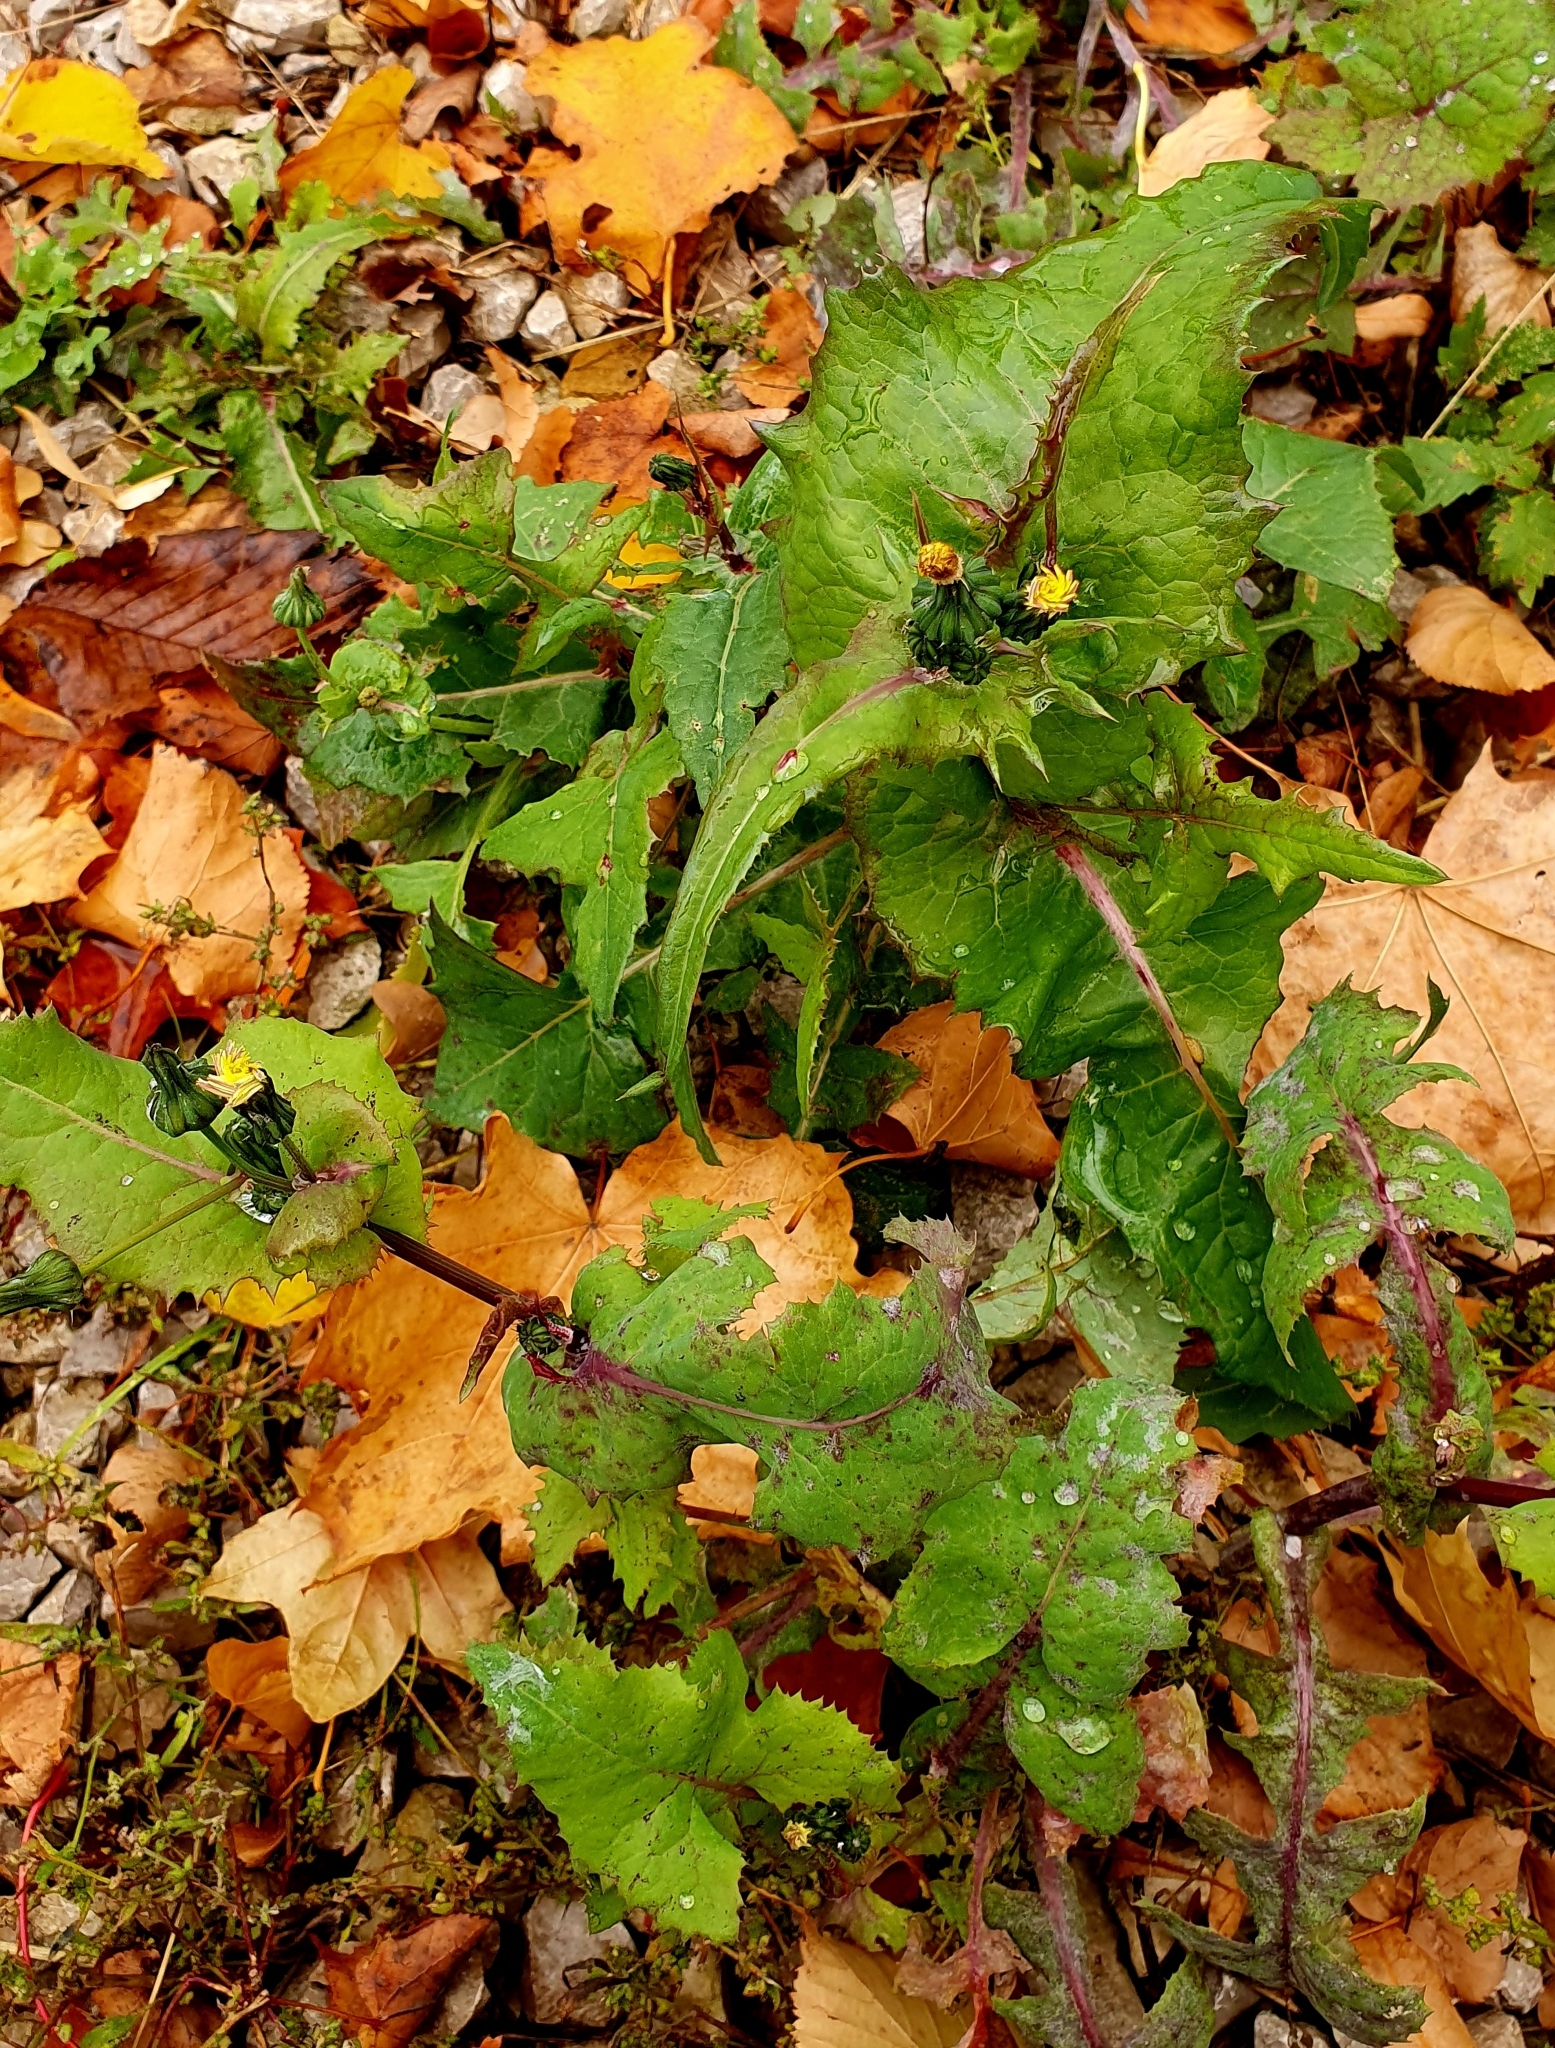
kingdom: Plantae
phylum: Tracheophyta
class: Magnoliopsida
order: Asterales
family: Asteraceae
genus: Sonchus
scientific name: Sonchus oleraceus
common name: Common sowthistle
